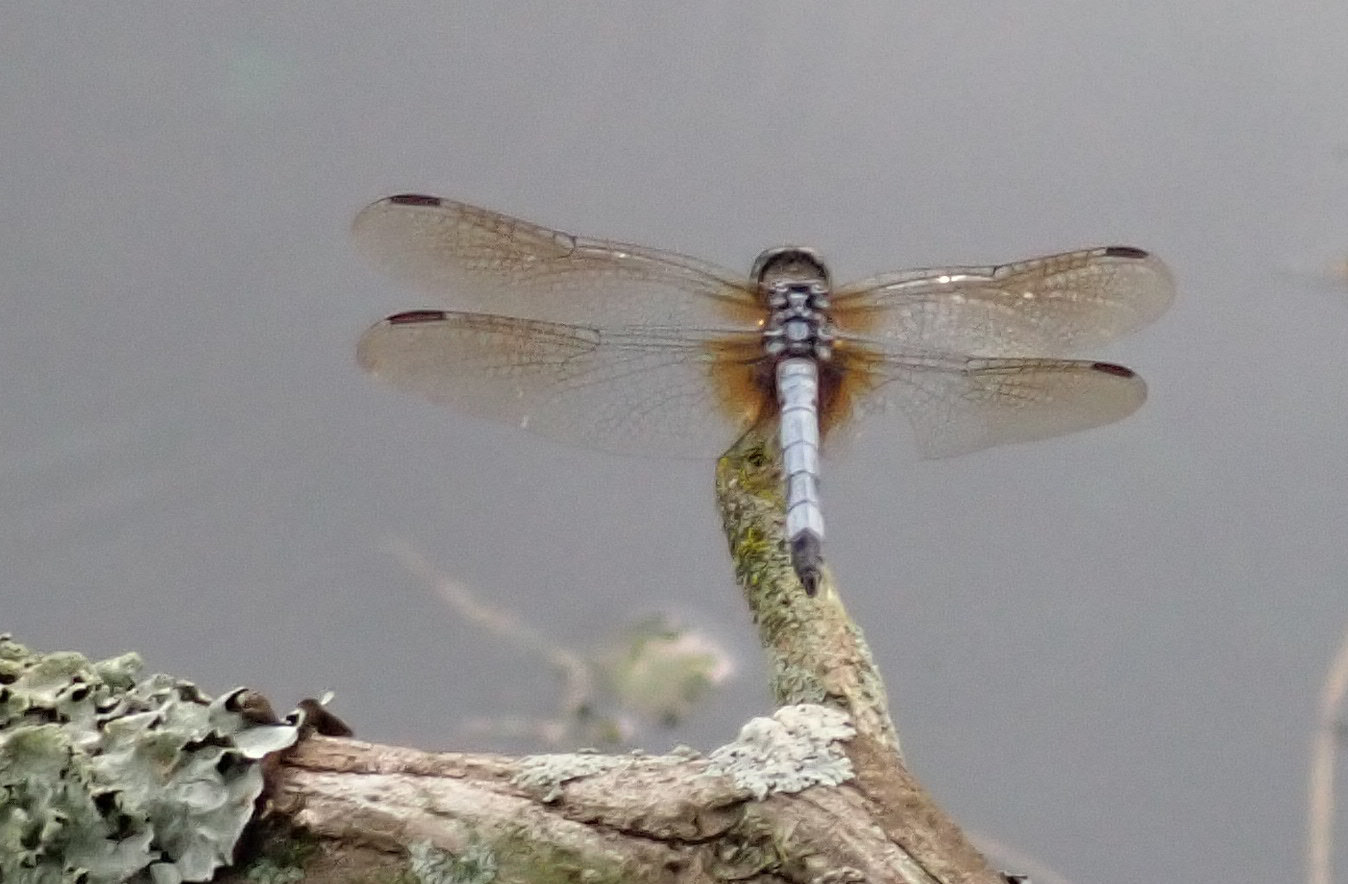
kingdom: Animalia
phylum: Arthropoda
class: Insecta
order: Odonata
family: Libellulidae
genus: Pachydiplax
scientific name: Pachydiplax longipennis
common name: Blue dasher
